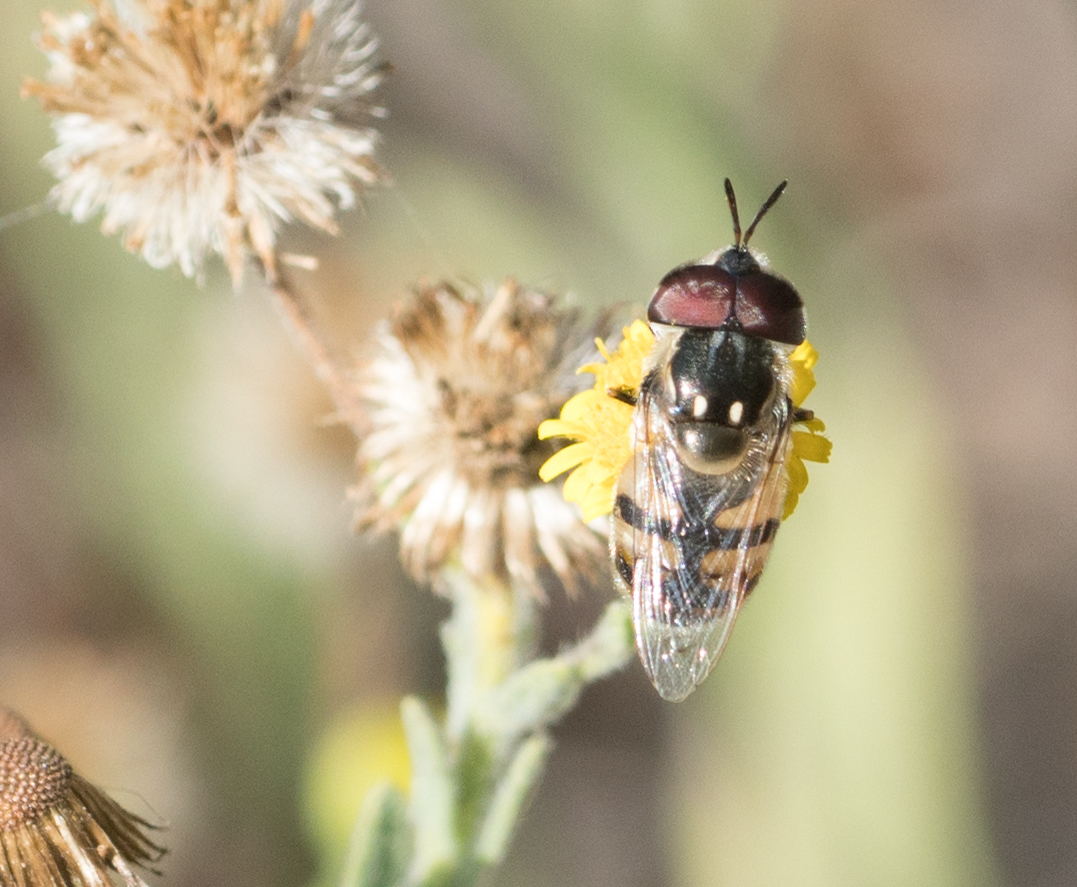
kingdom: Animalia
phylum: Arthropoda
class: Insecta
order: Diptera
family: Syrphidae
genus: Copestylum
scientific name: Copestylum
